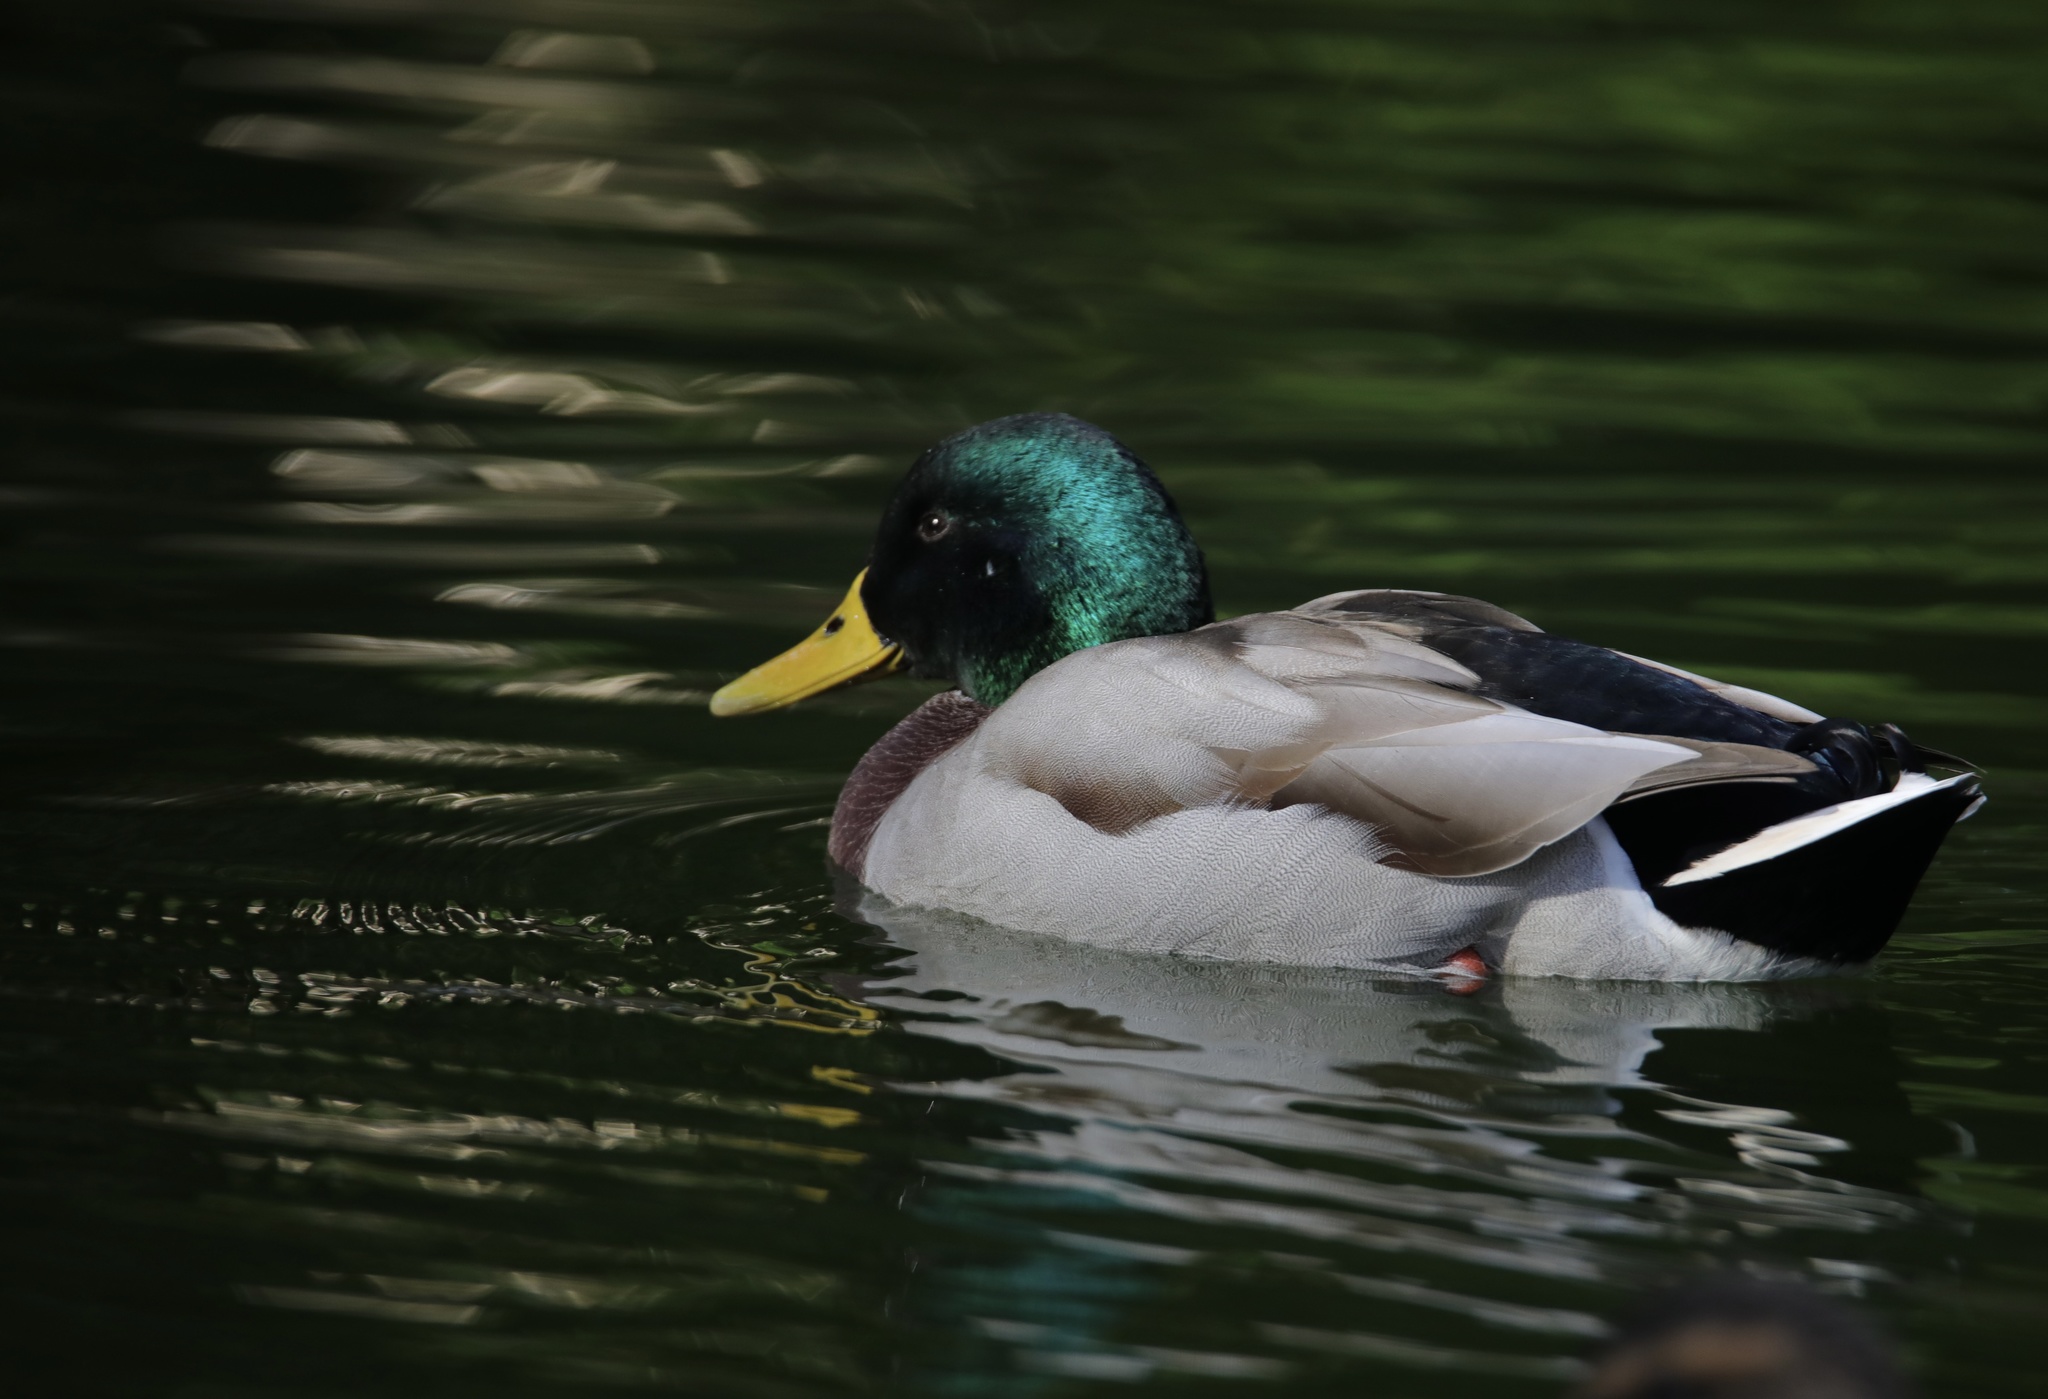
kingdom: Animalia
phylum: Chordata
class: Aves
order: Anseriformes
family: Anatidae
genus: Anas
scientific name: Anas platyrhynchos
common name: Mallard
